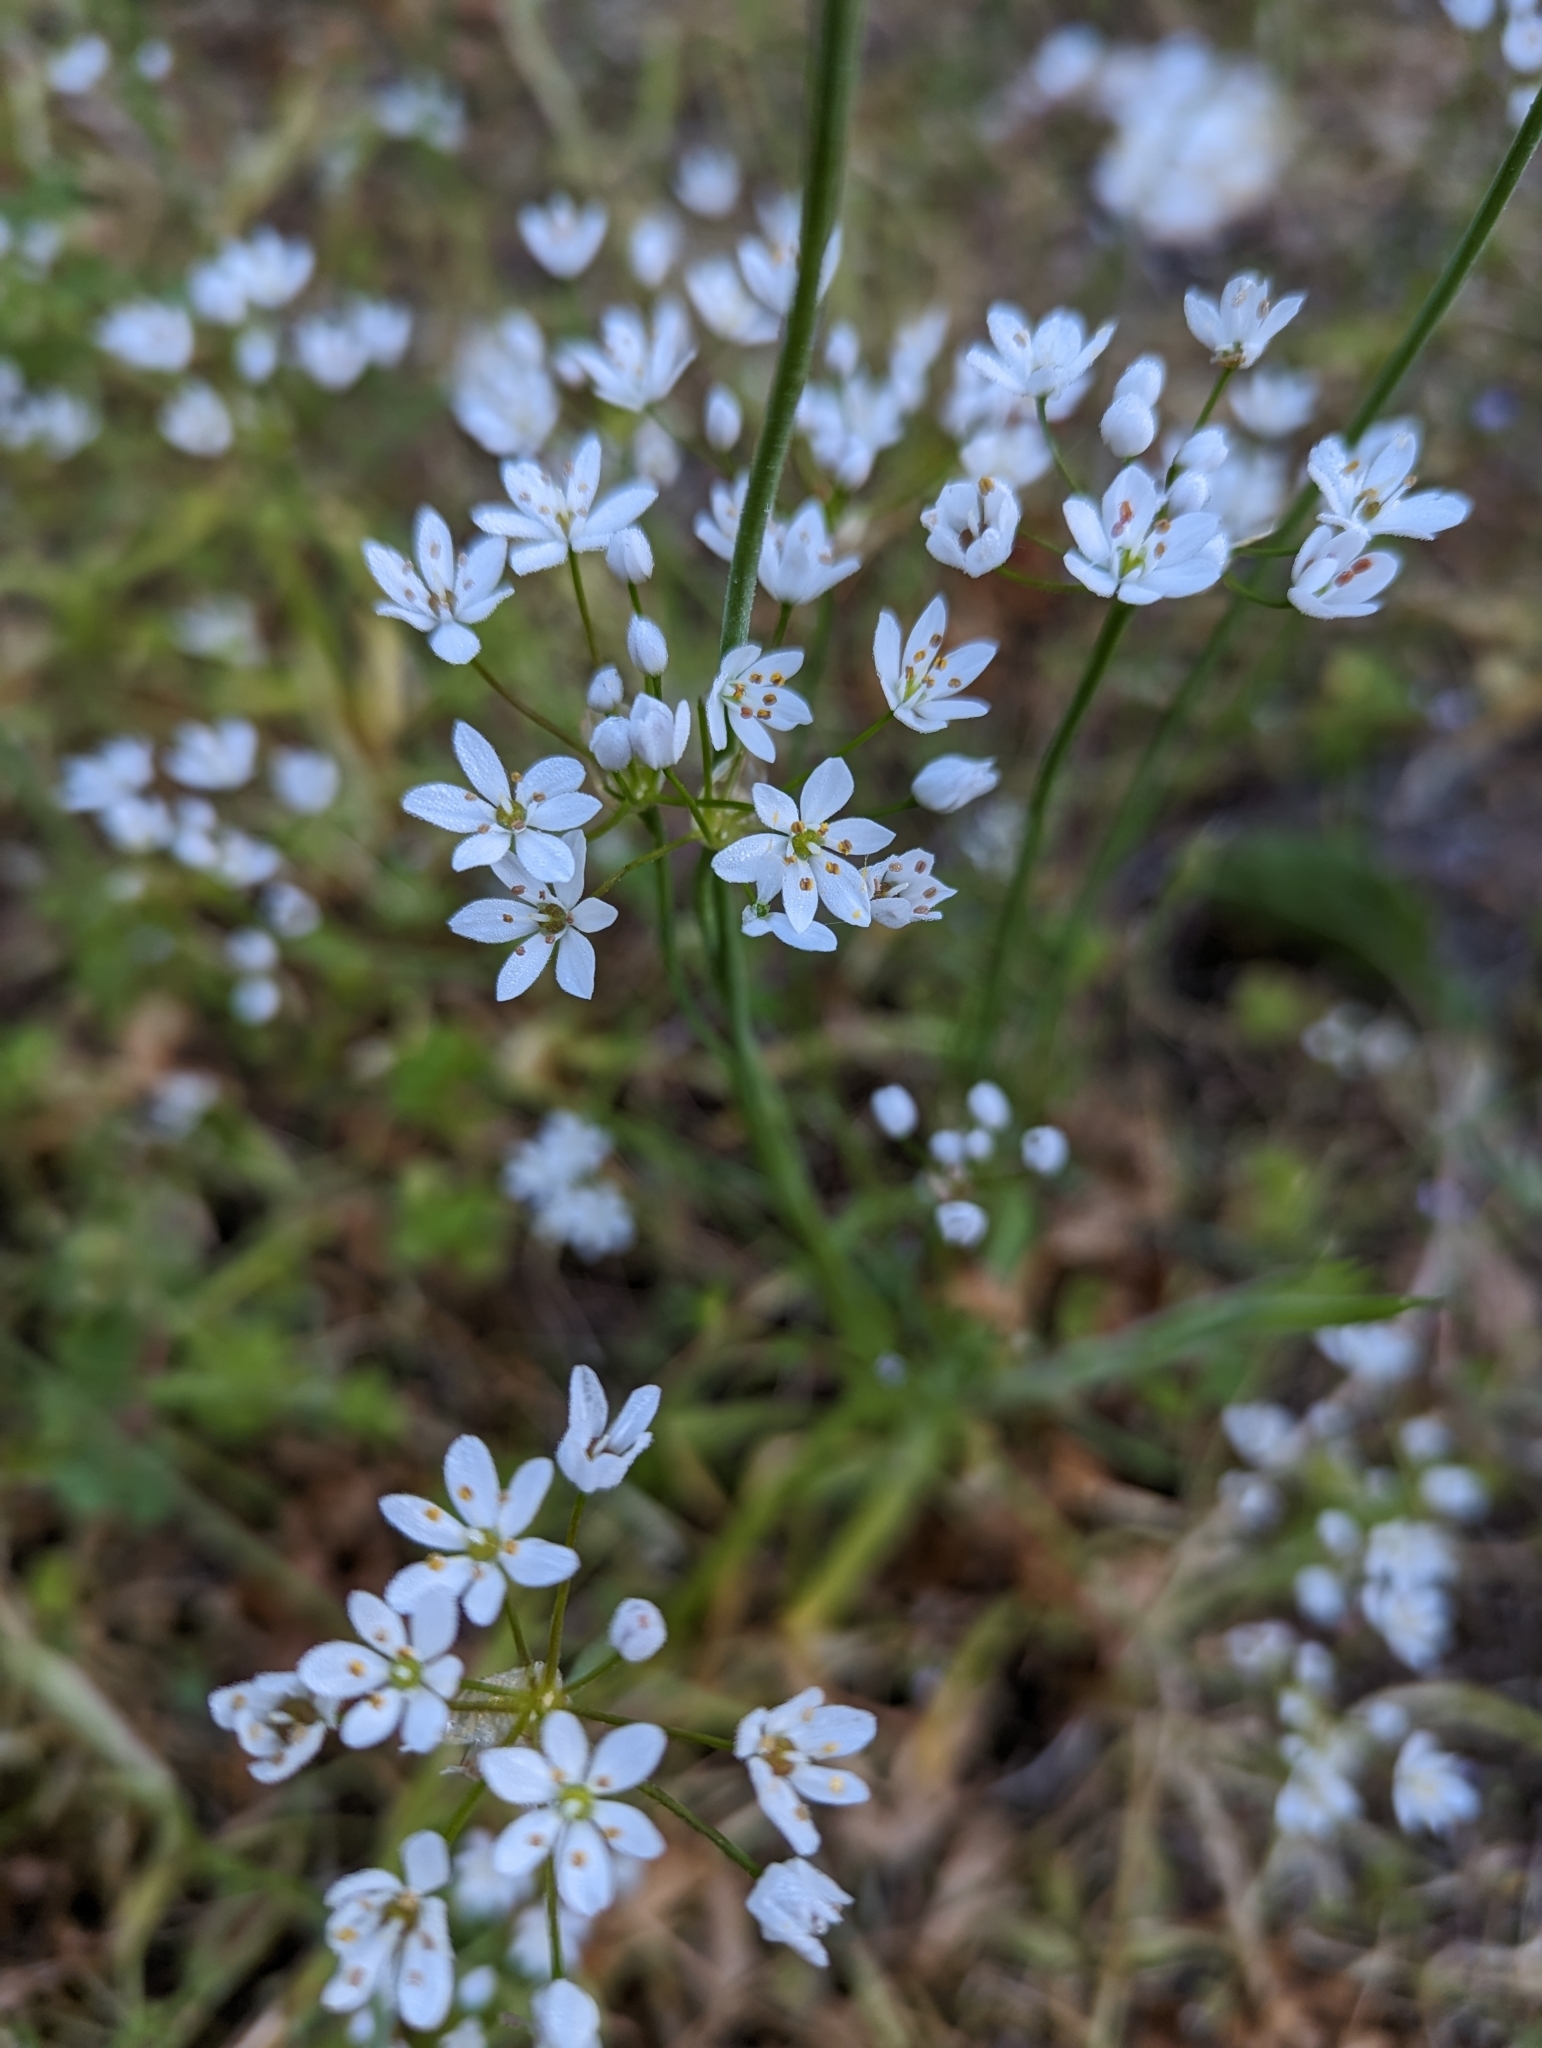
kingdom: Plantae
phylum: Tracheophyta
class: Liliopsida
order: Asparagales
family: Amaryllidaceae
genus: Allium
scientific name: Allium subhirsutum
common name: Hairy garlic
